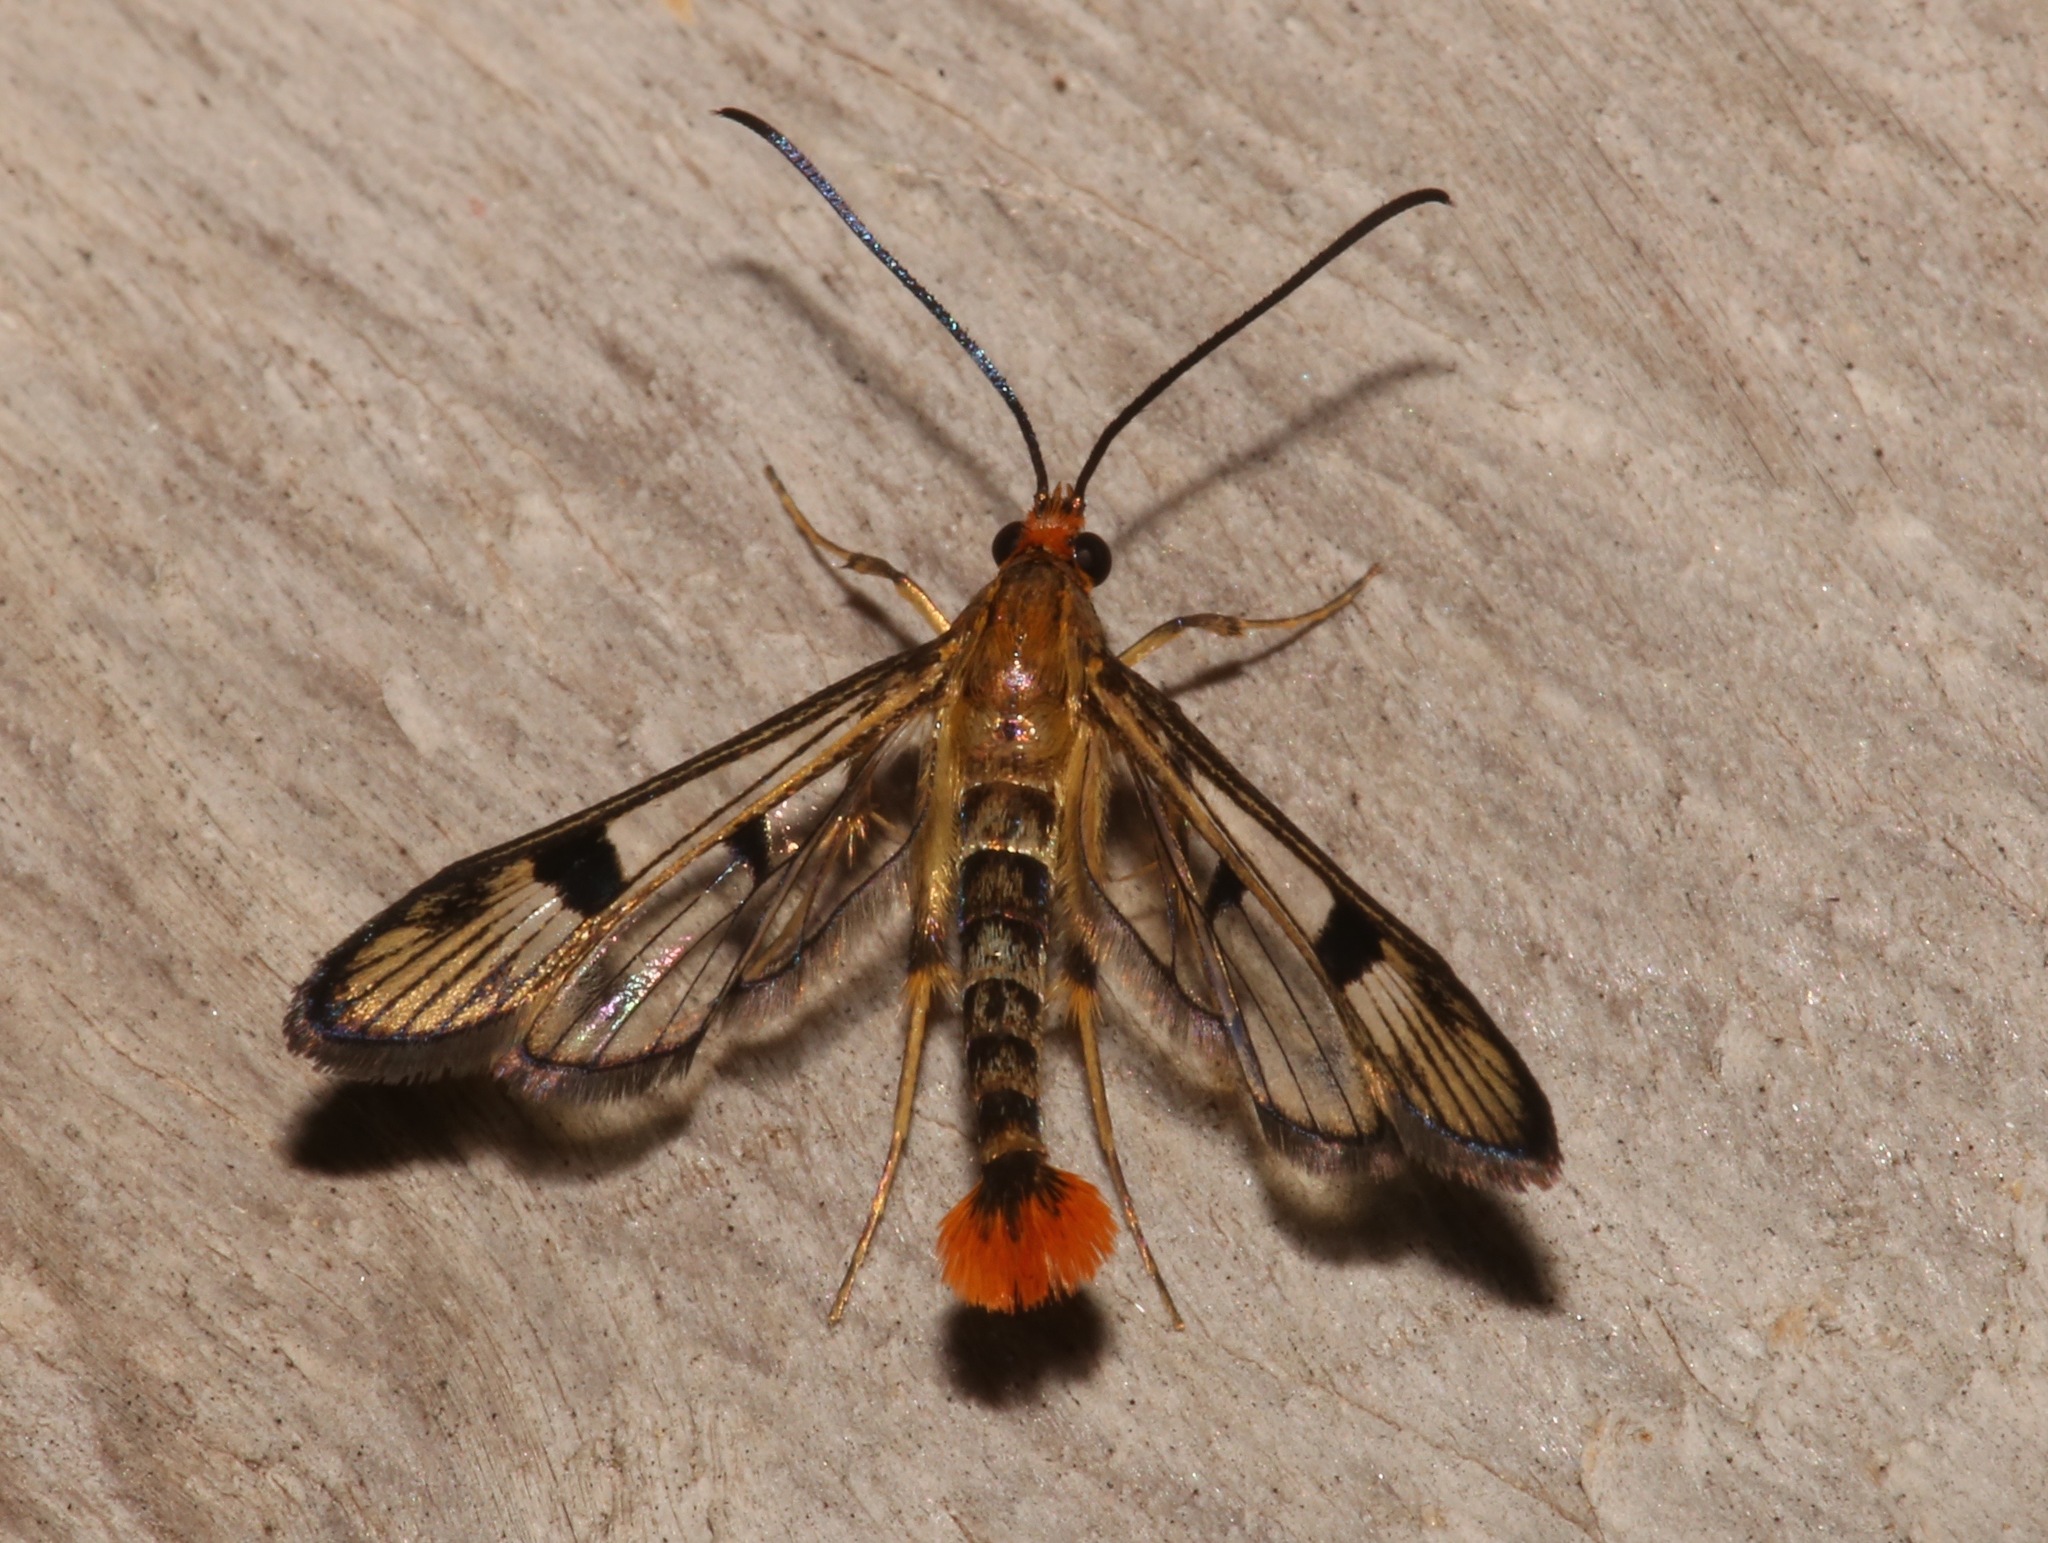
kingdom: Animalia
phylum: Arthropoda
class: Insecta
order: Lepidoptera
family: Sesiidae
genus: Synanthedon
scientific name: Synanthedon acerni
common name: Maple callus borer moth
